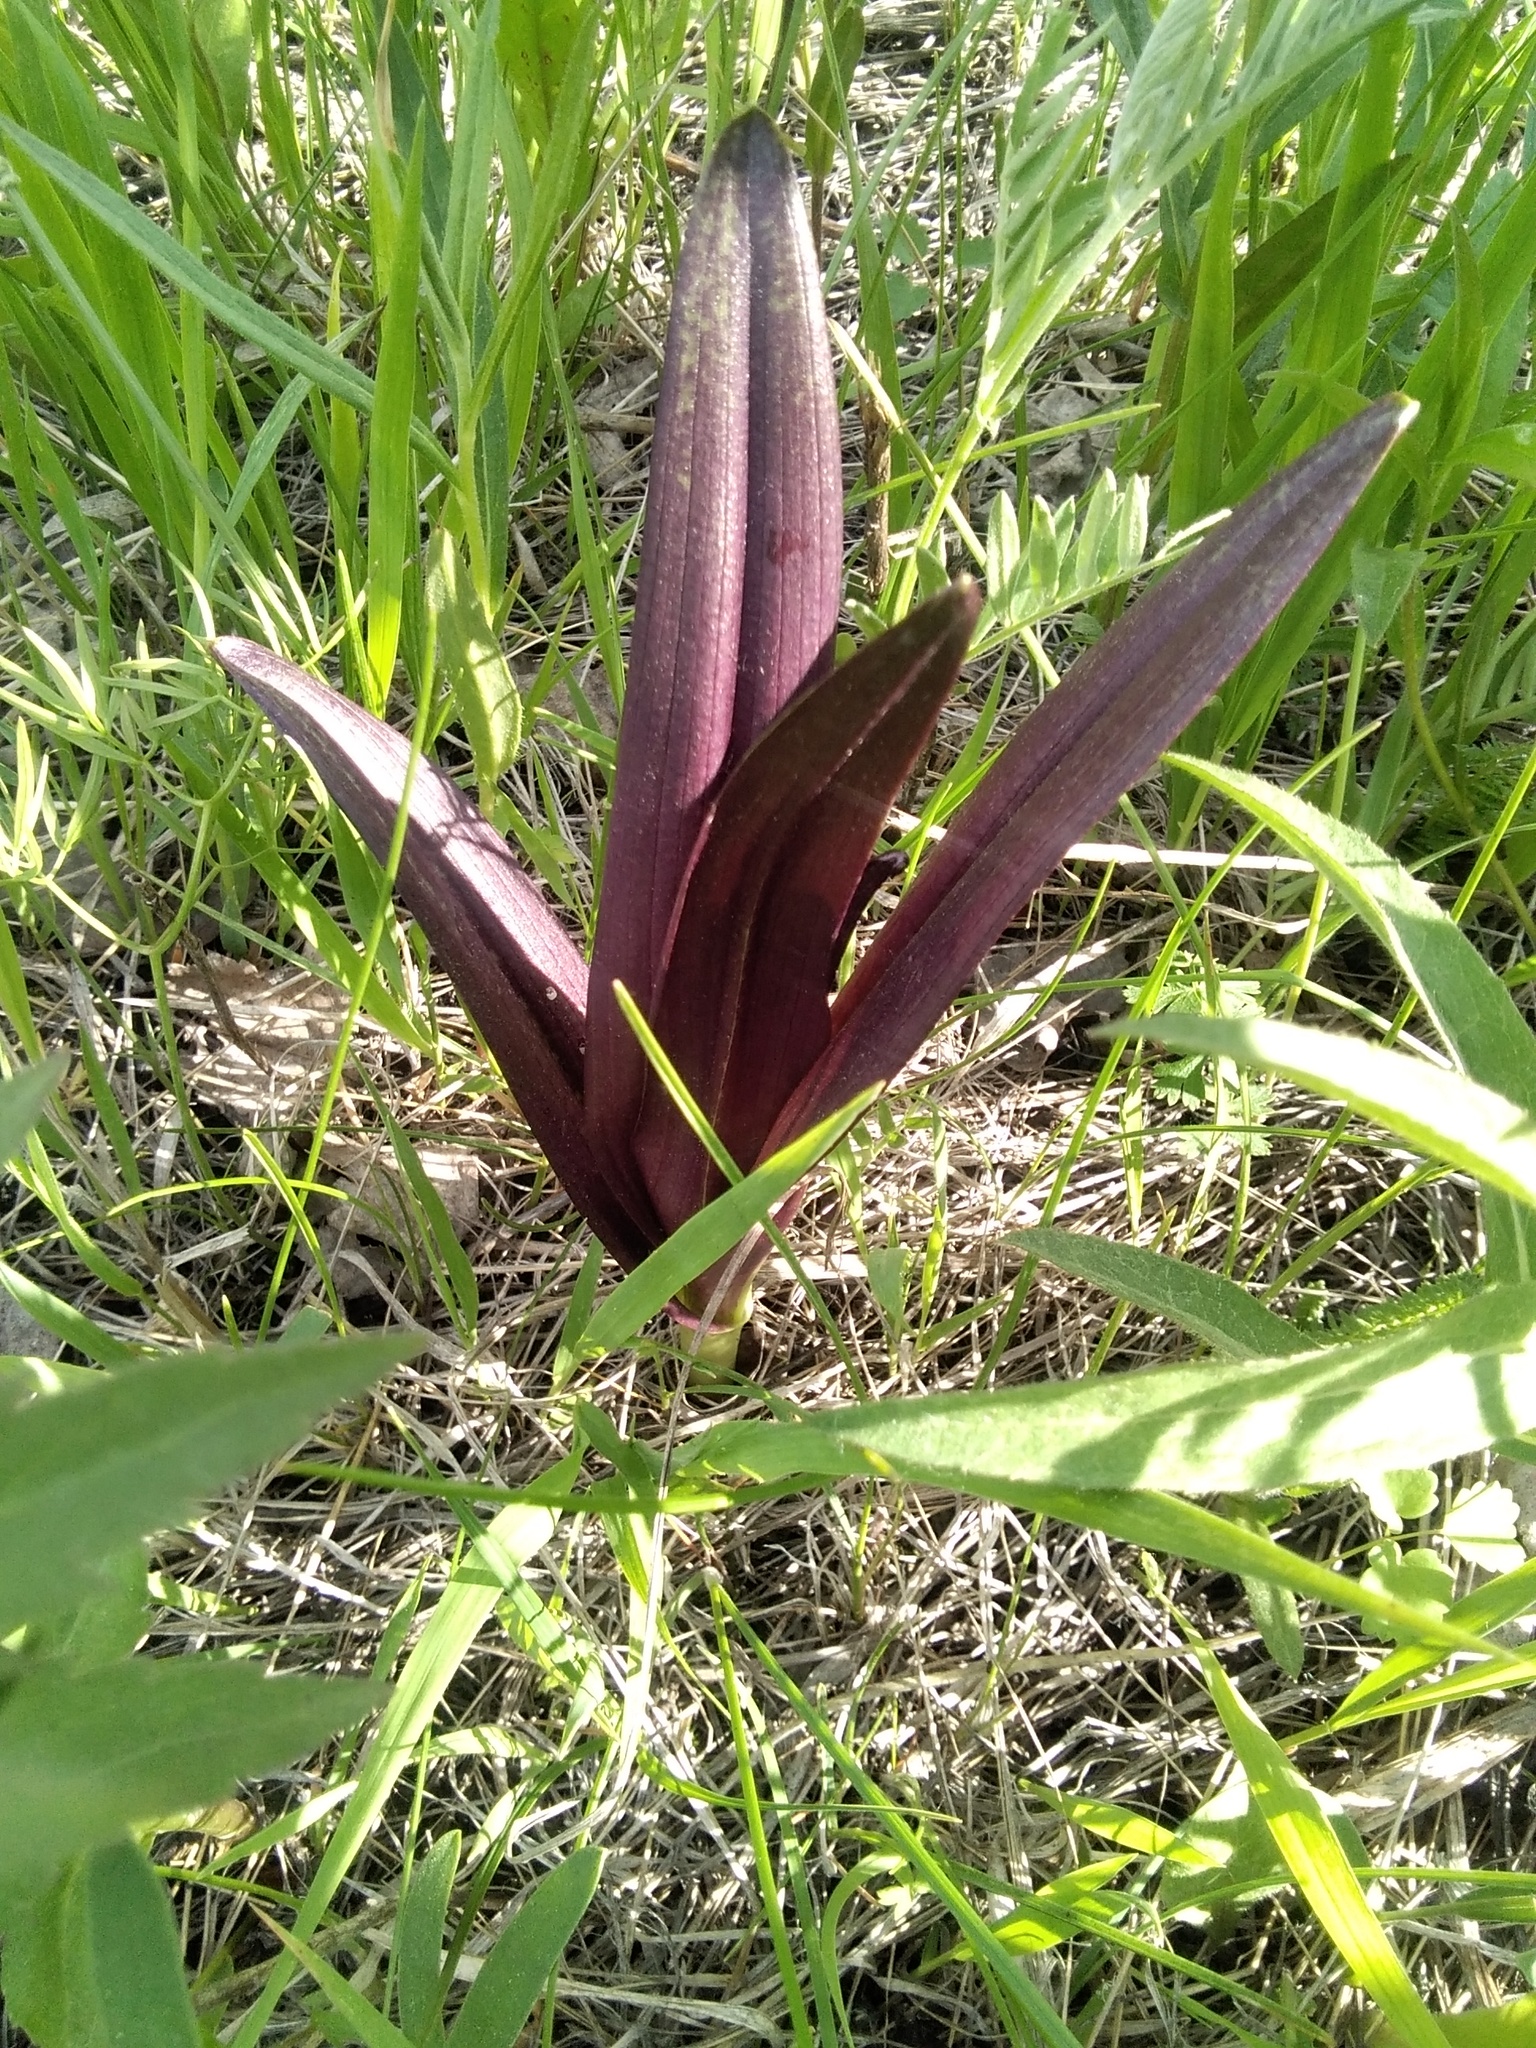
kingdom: Plantae
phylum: Tracheophyta
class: Liliopsida
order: Asparagales
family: Orchidaceae
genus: Dactylorhiza
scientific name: Dactylorhiza incarnata
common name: Early marsh-orchid
